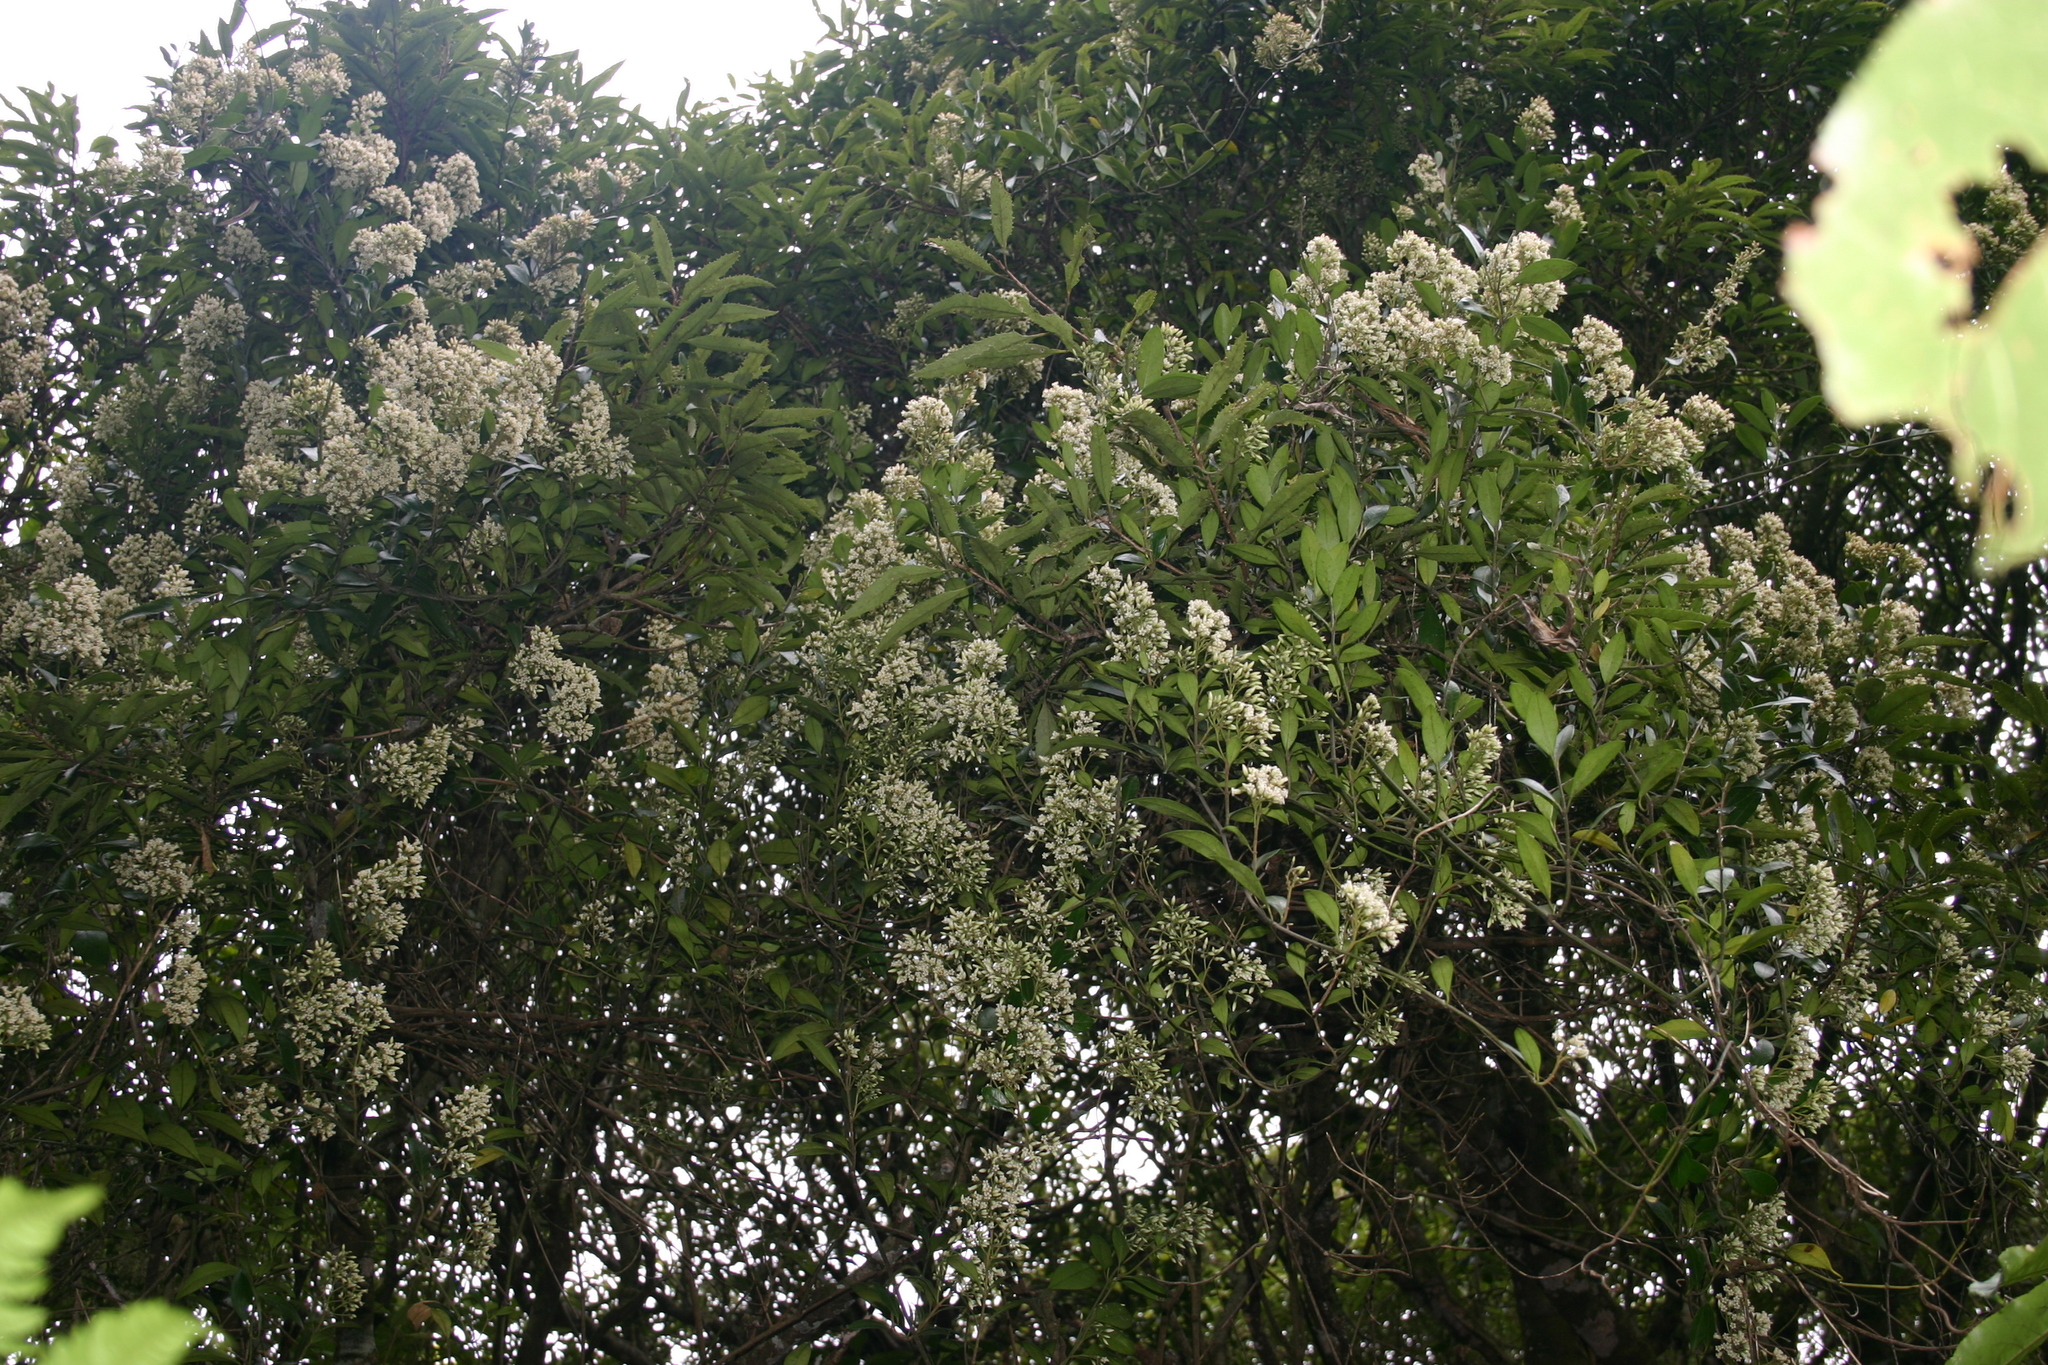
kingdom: Plantae
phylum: Tracheophyta
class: Magnoliopsida
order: Gentianales
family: Apocynaceae
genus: Parsonsia
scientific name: Parsonsia heterophylla
